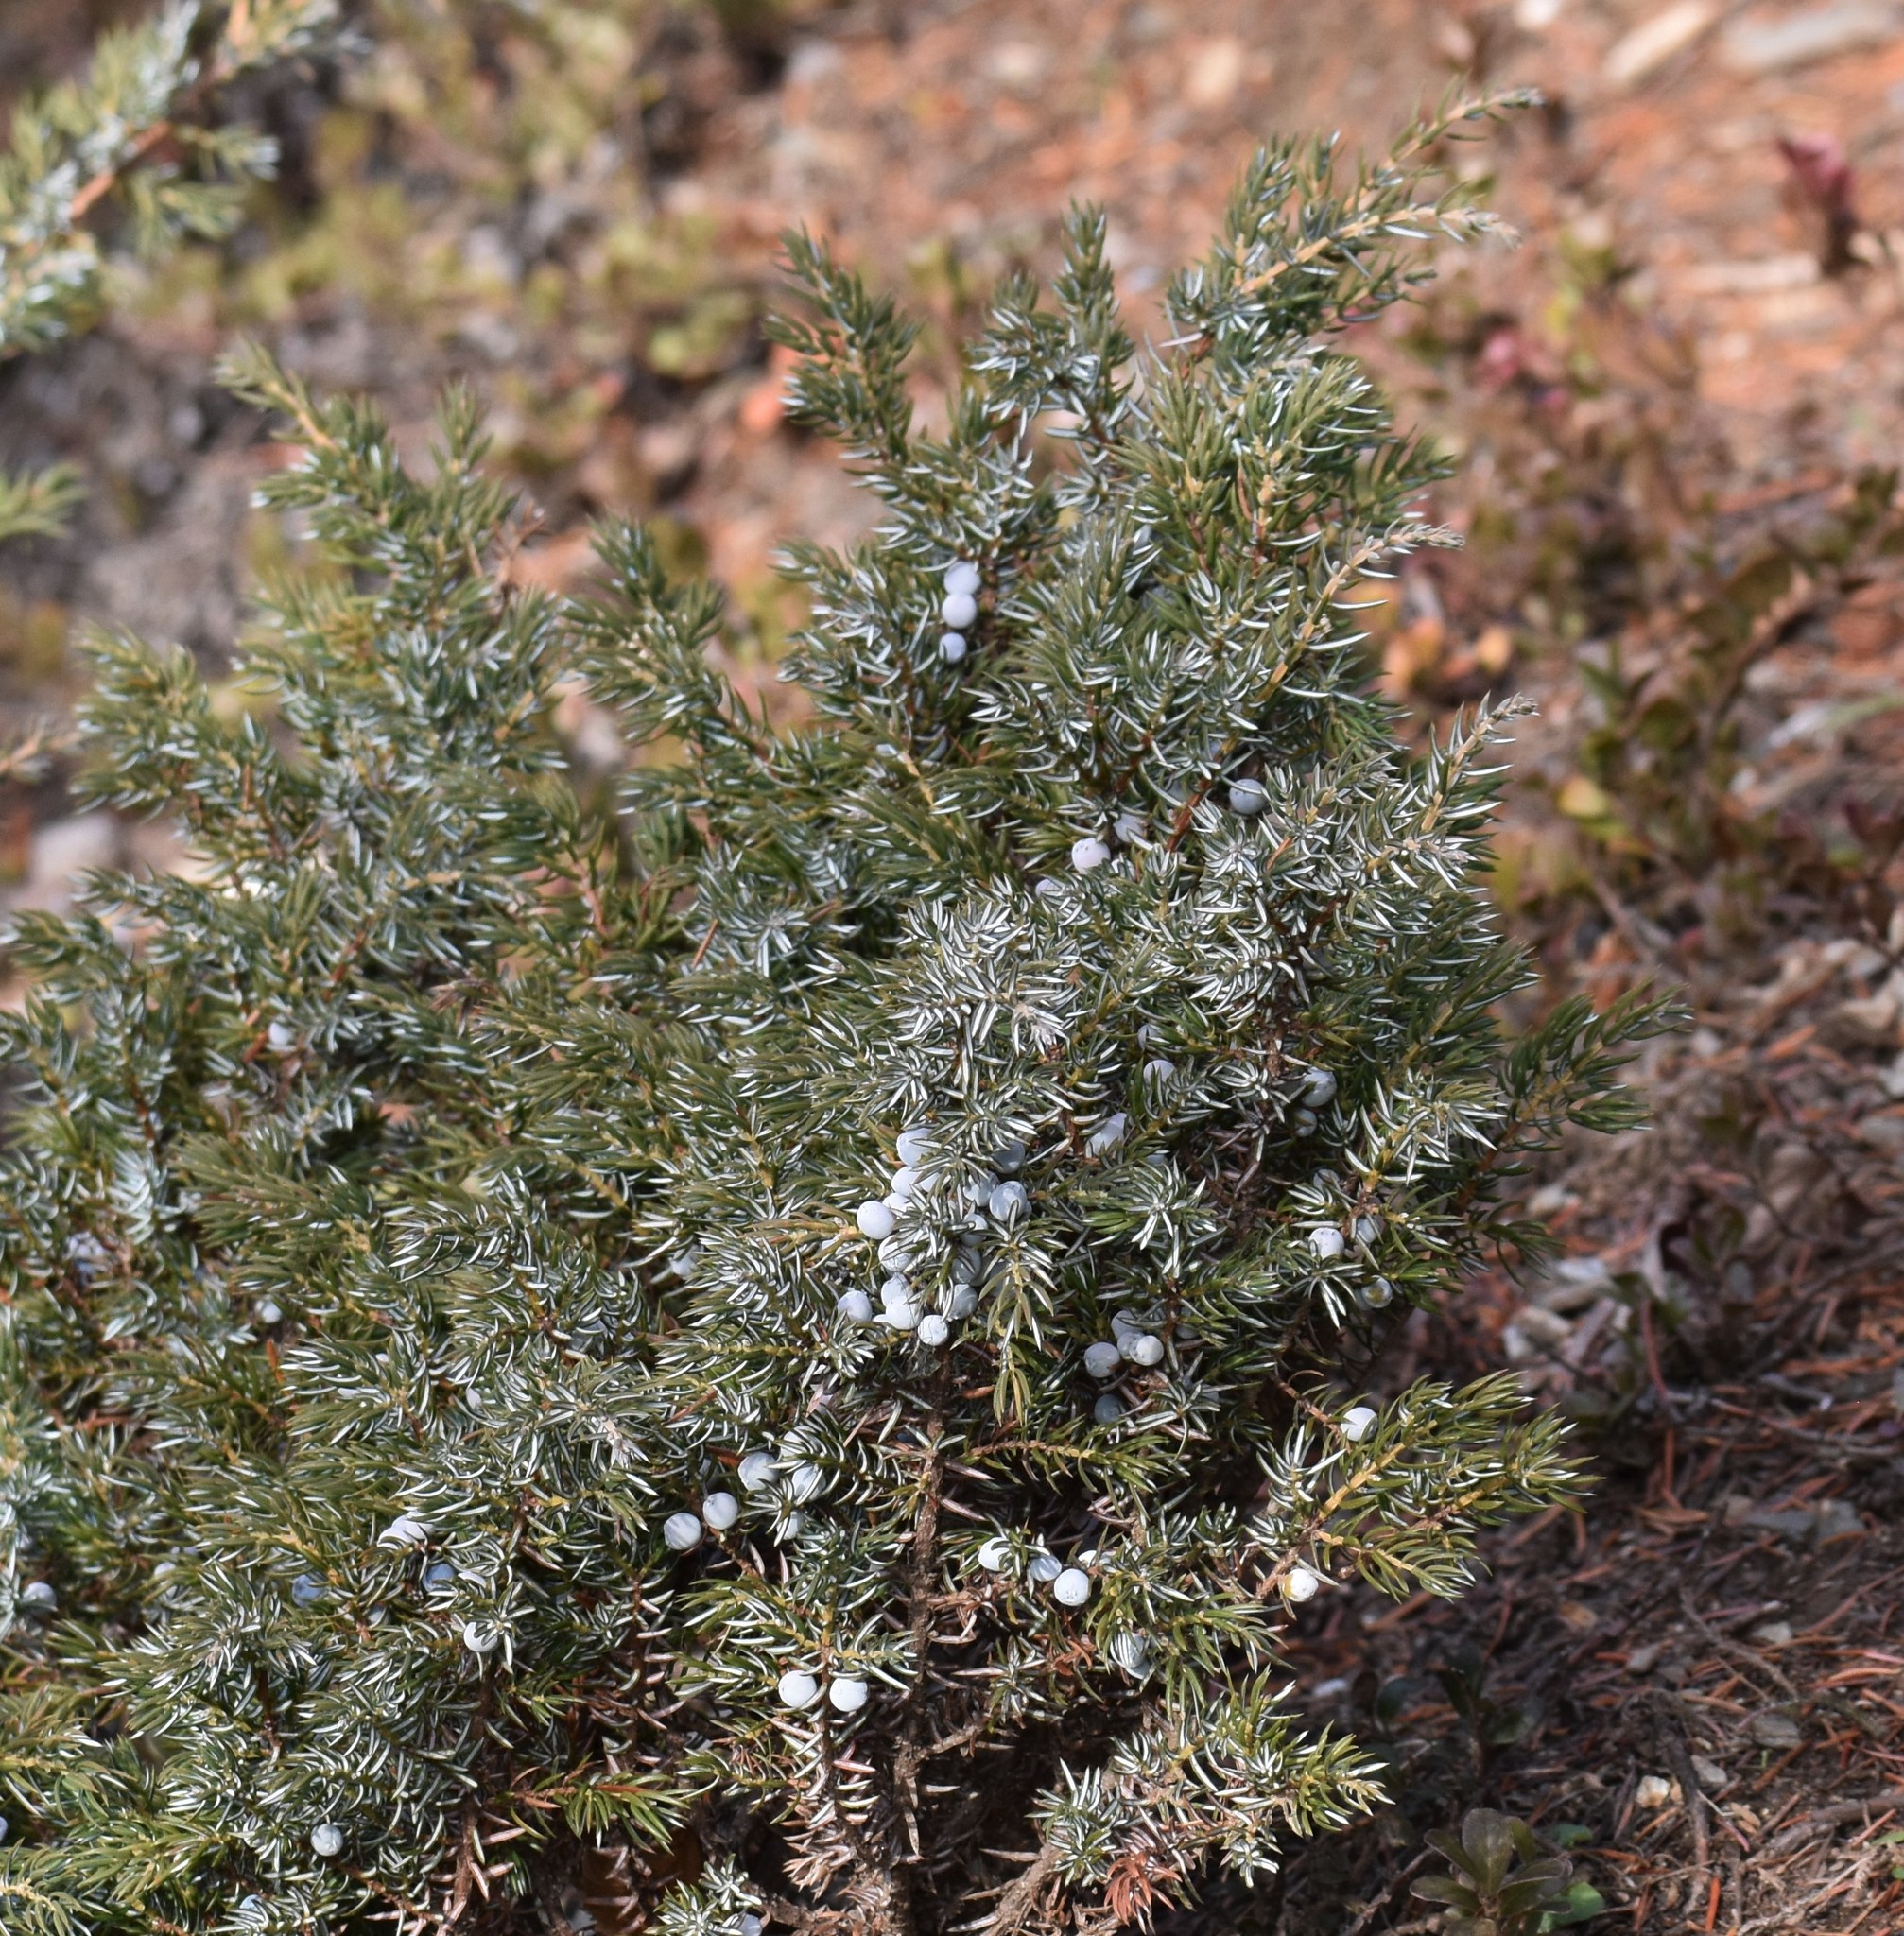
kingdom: Plantae
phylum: Tracheophyta
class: Pinopsida
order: Pinales
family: Cupressaceae
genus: Juniperus
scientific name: Juniperus communis
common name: Common juniper
